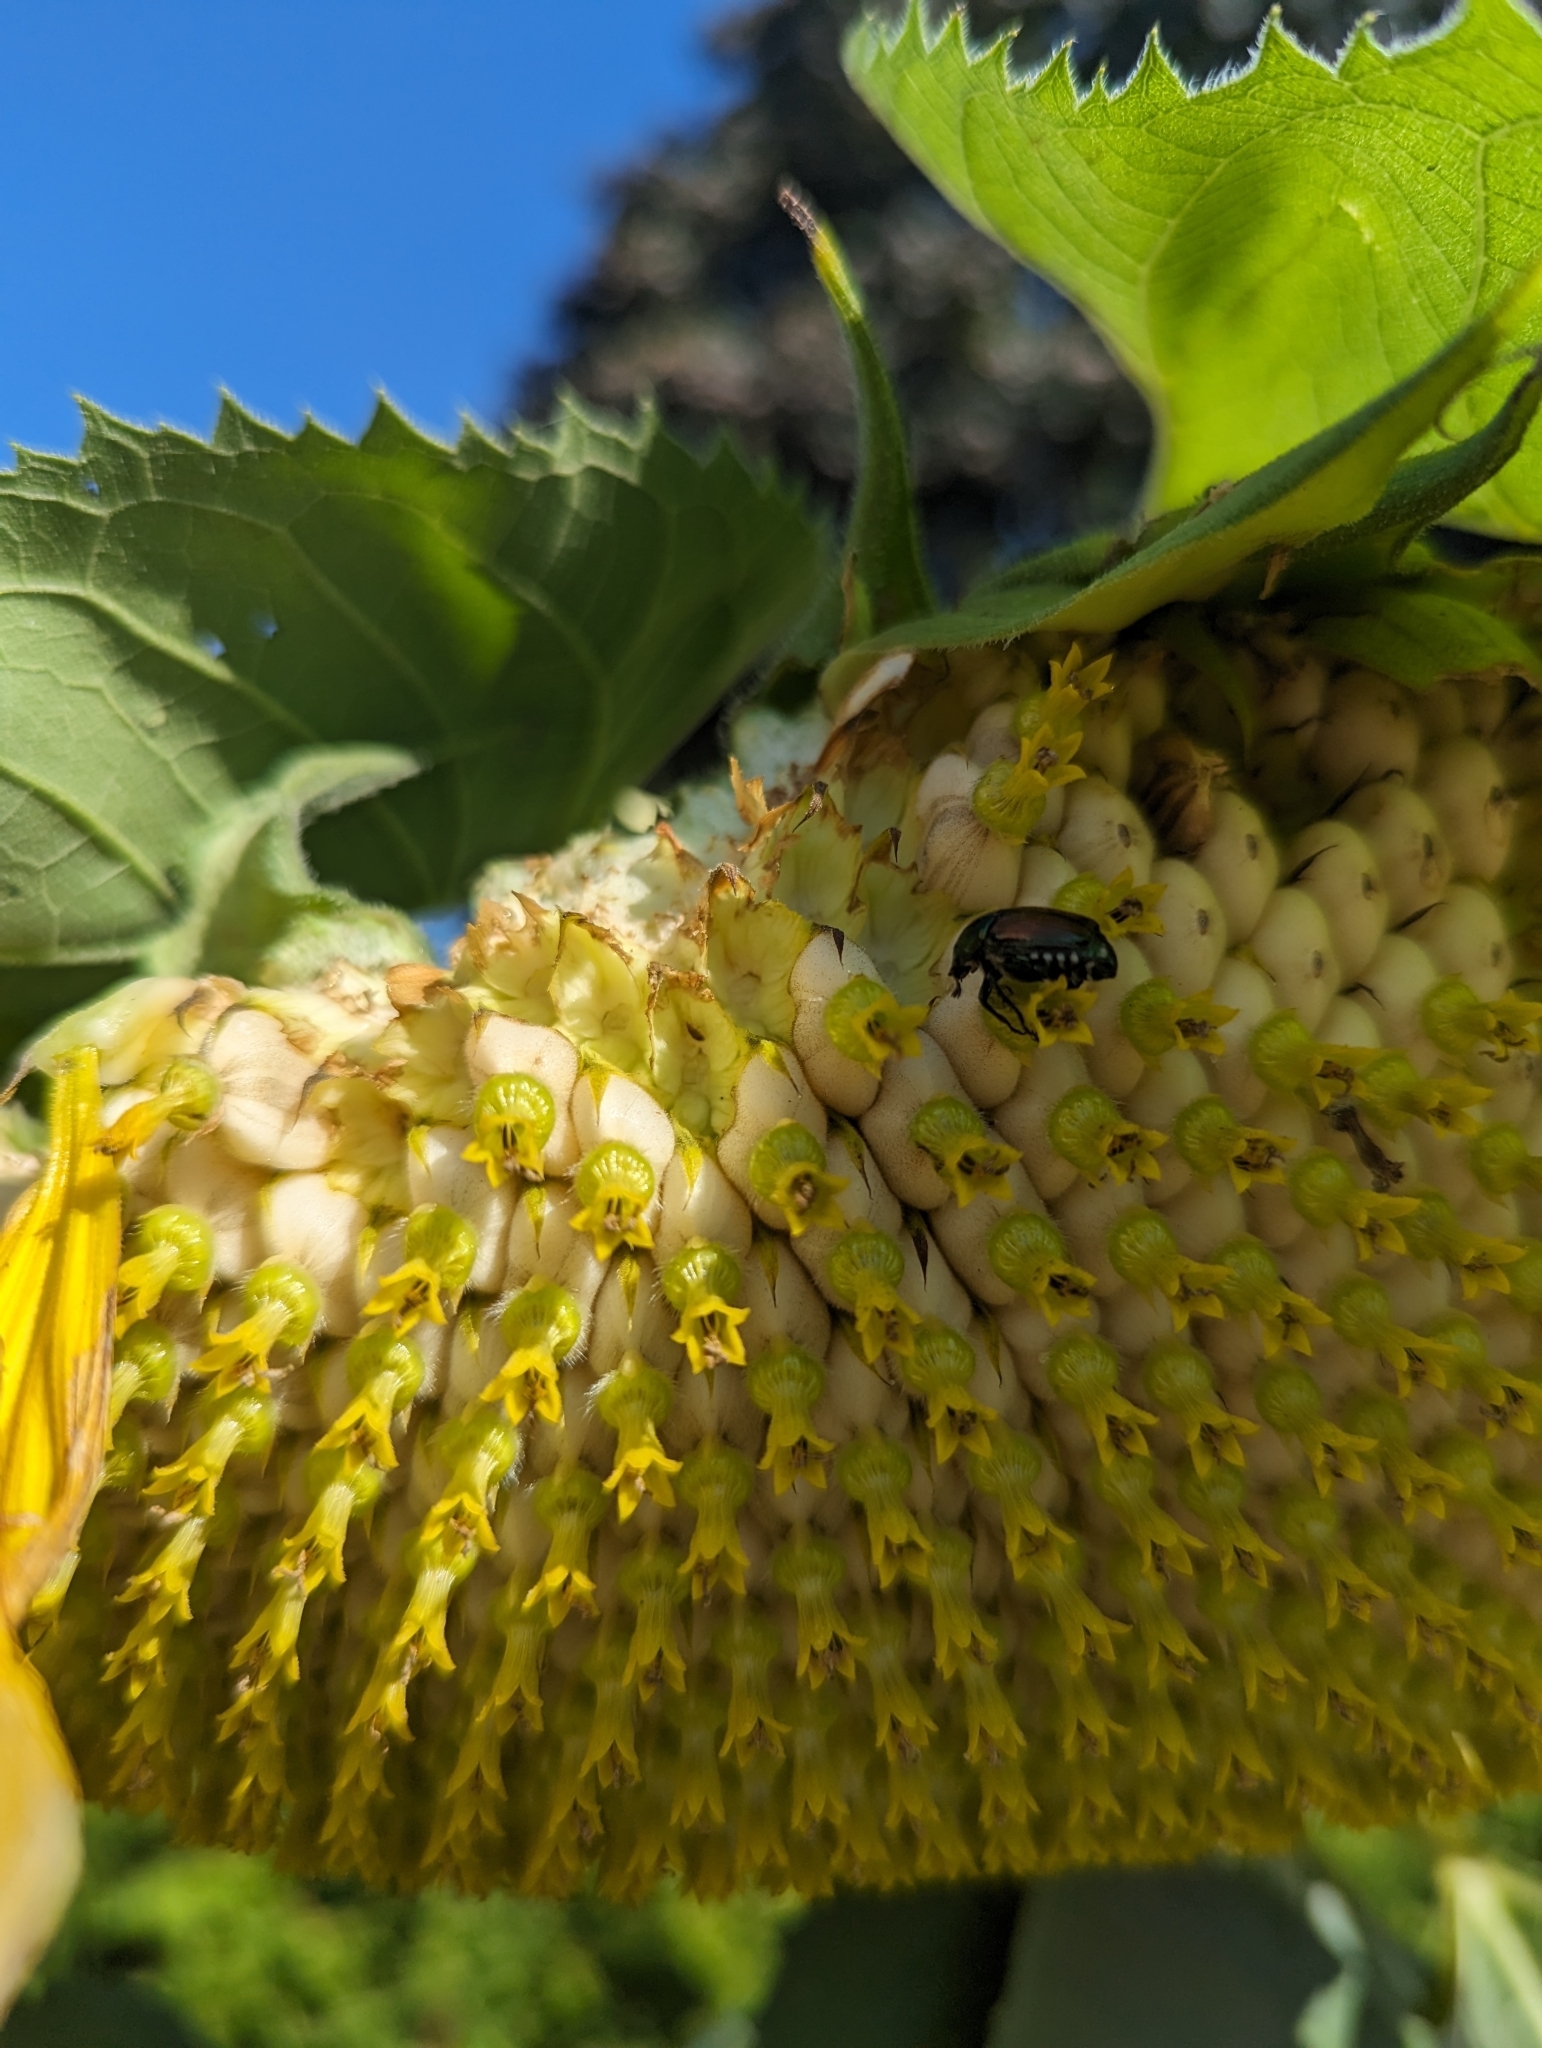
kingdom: Animalia
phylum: Arthropoda
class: Insecta
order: Coleoptera
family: Scarabaeidae
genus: Popillia
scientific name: Popillia japonica
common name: Japanese beetle
